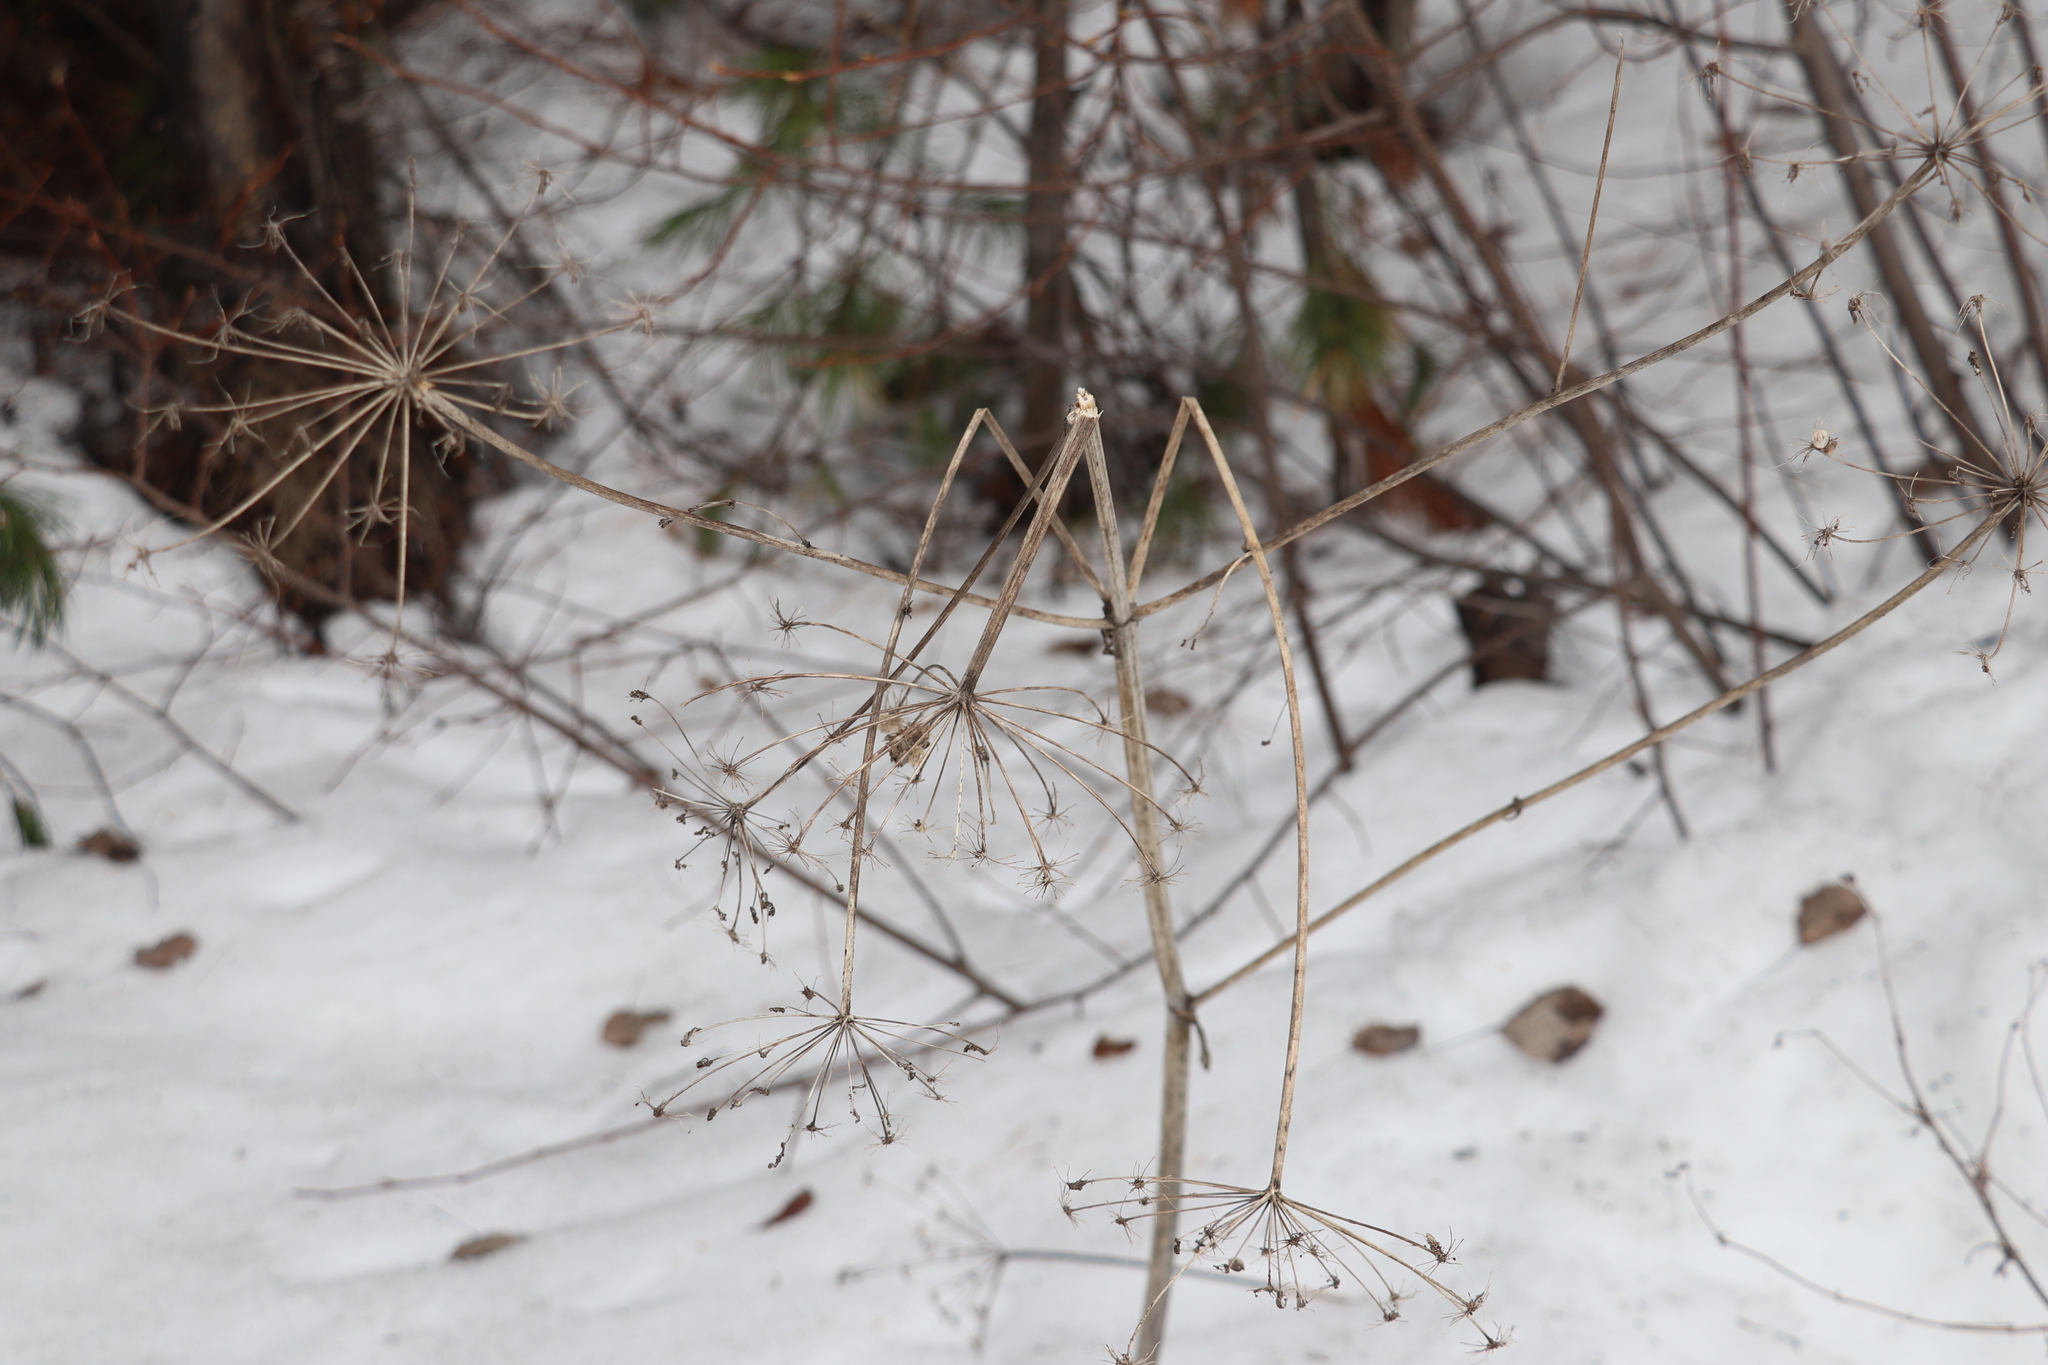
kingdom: Plantae
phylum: Tracheophyta
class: Magnoliopsida
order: Apiales
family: Apiaceae
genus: Angelica
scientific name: Angelica sylvestris
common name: Wild angelica
